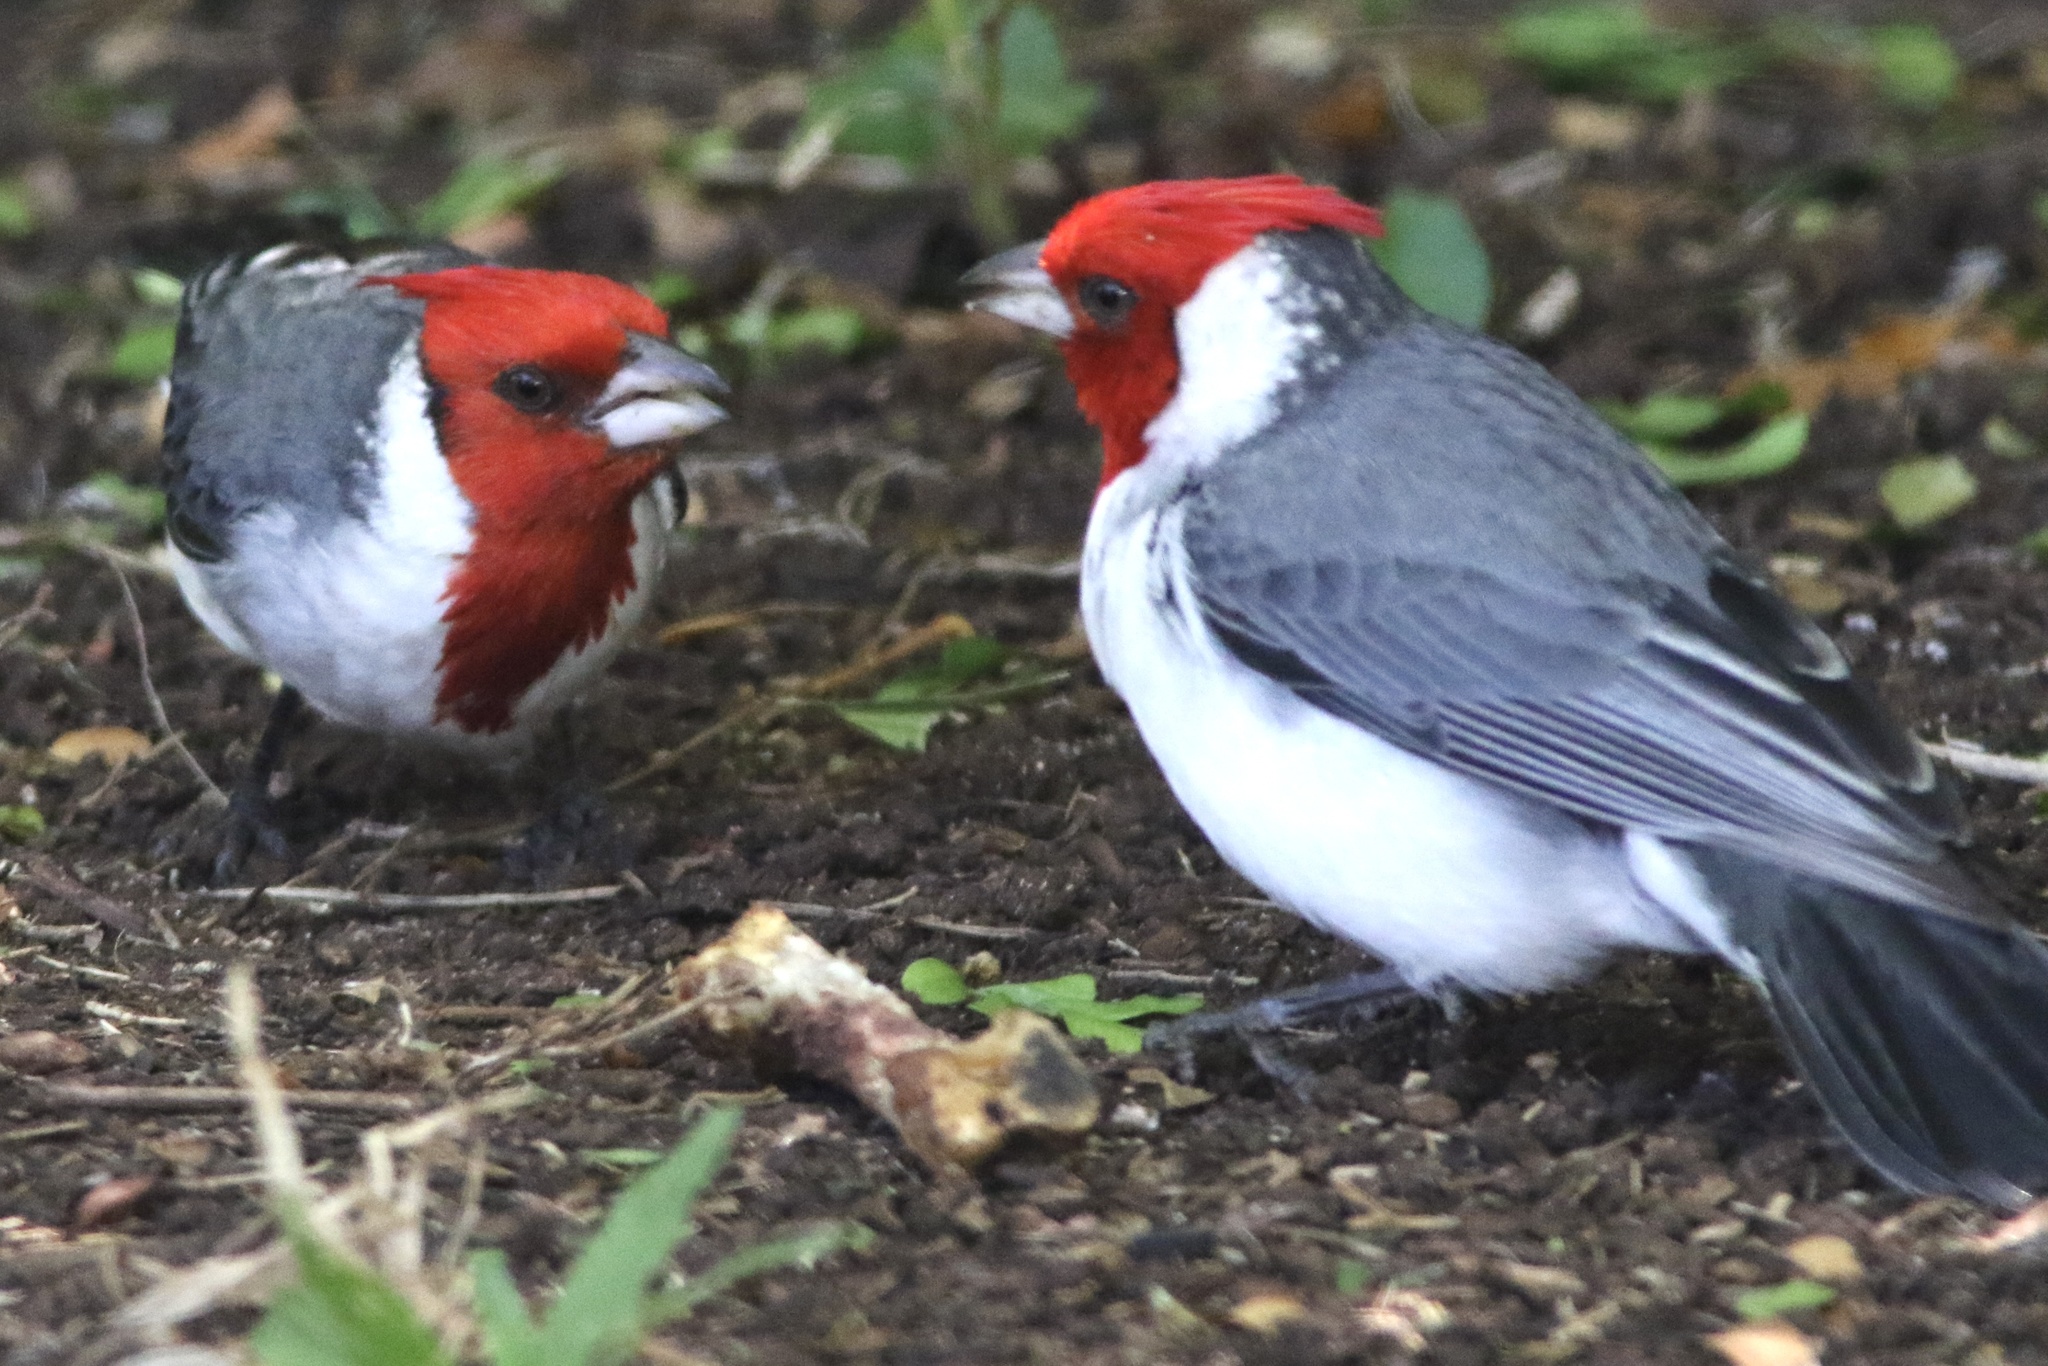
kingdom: Animalia
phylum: Chordata
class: Aves
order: Passeriformes
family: Thraupidae
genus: Paroaria
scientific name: Paroaria coronata
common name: Red-crested cardinal
